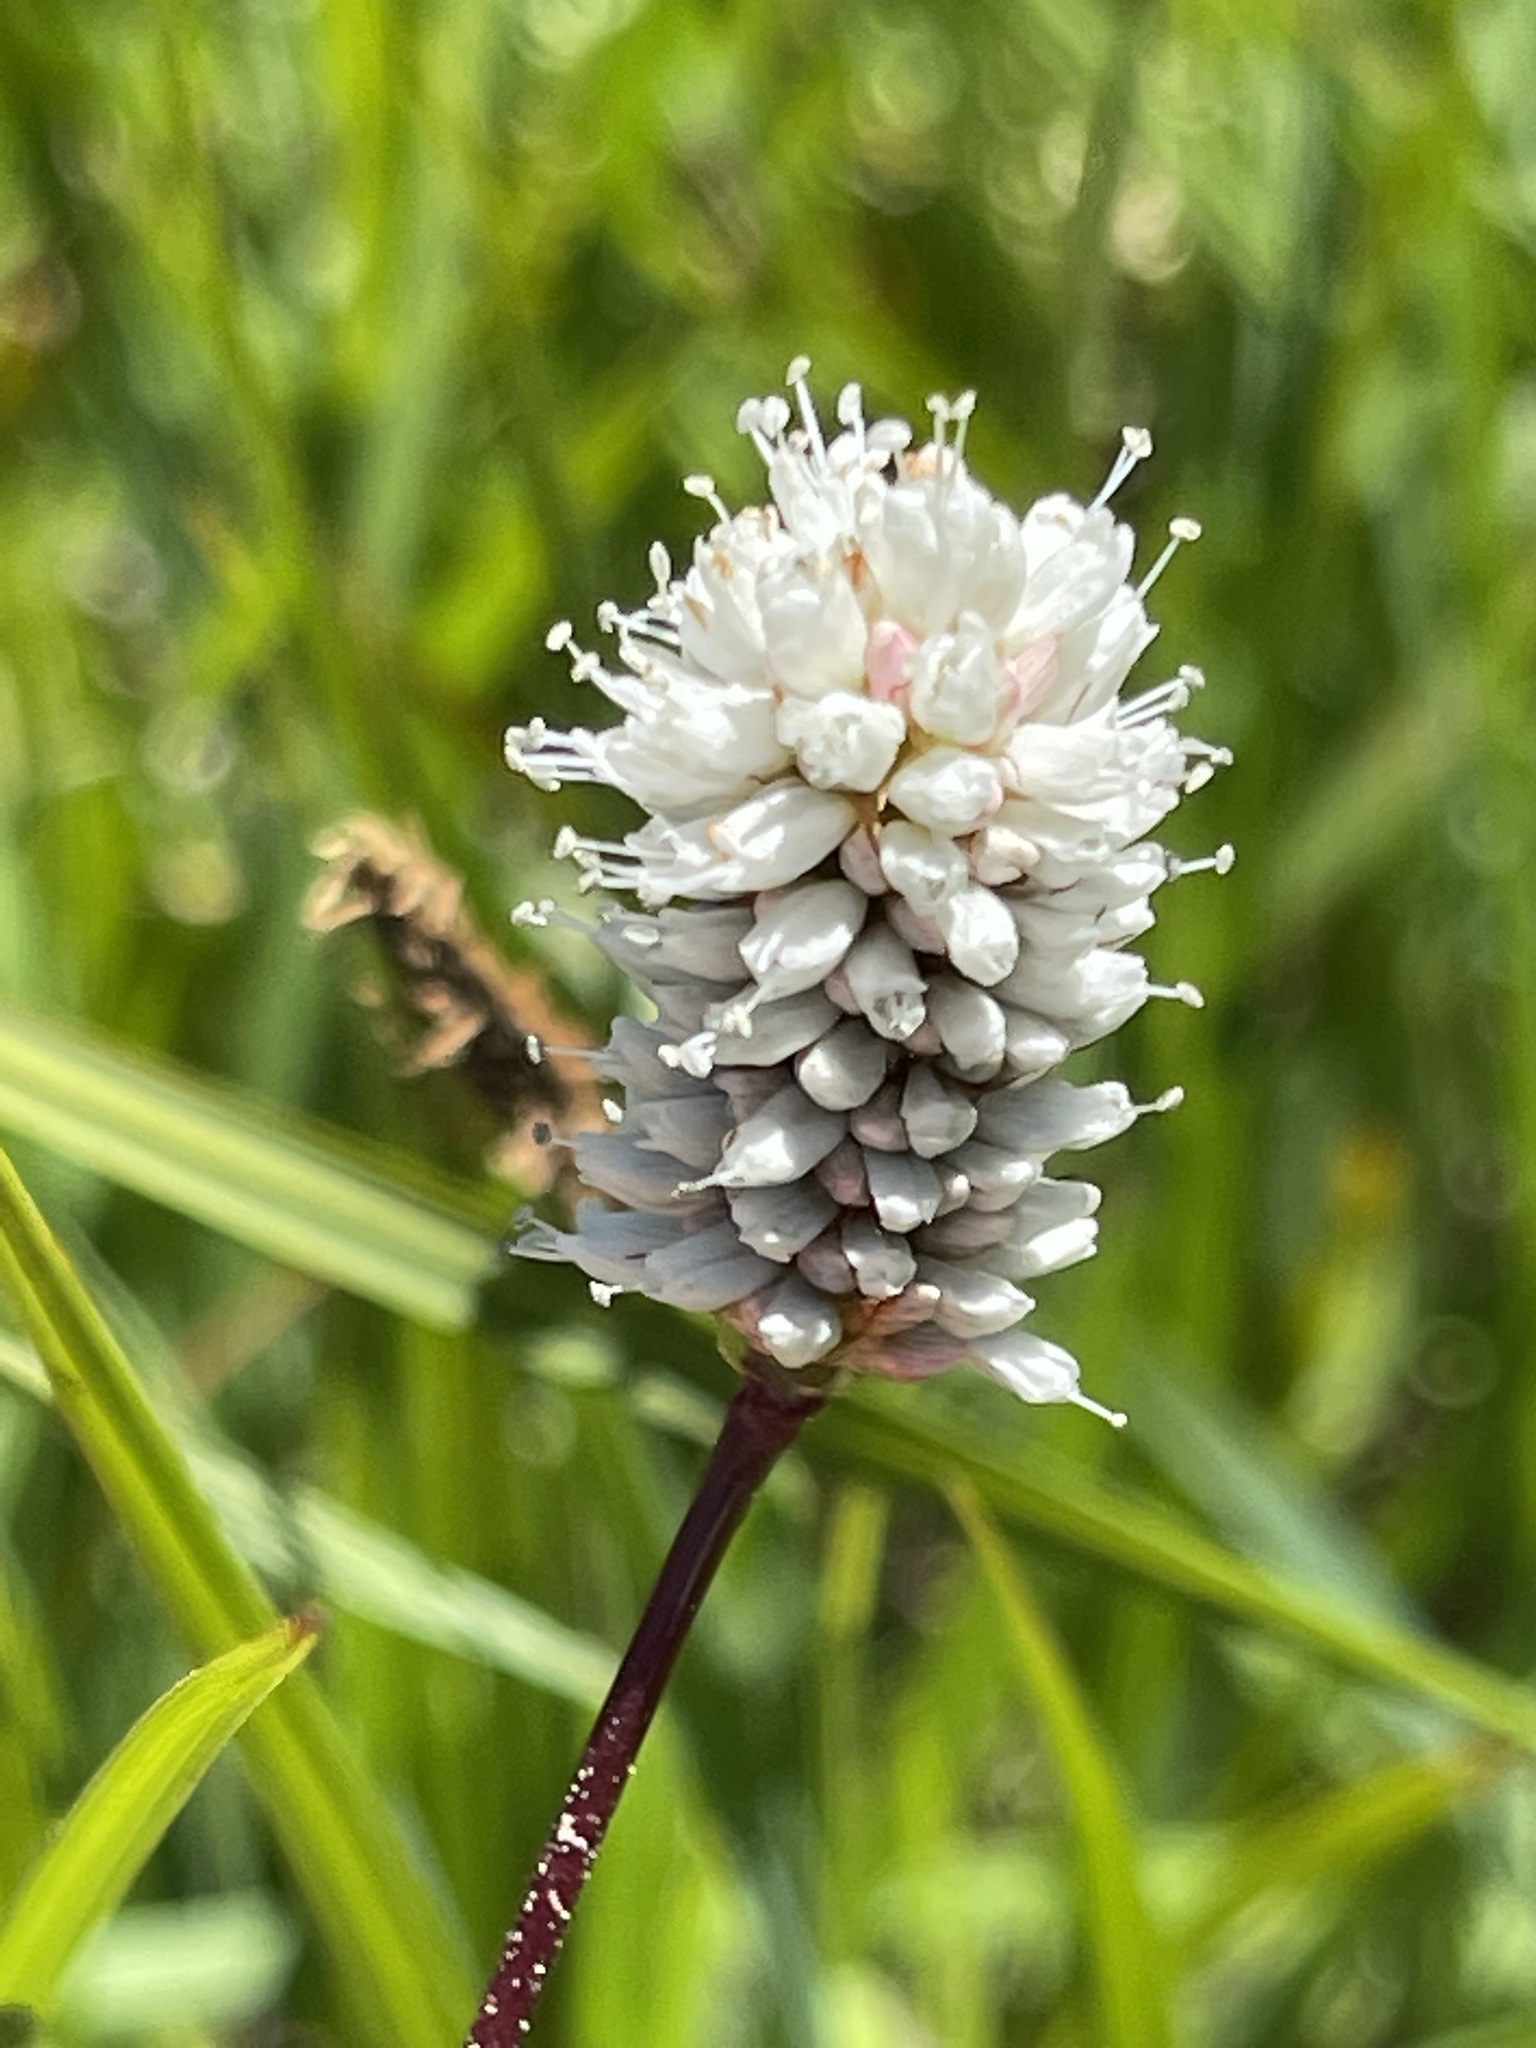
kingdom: Plantae
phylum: Tracheophyta
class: Magnoliopsida
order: Caryophyllales
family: Polygonaceae
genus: Bistorta
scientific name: Bistorta bistortoides
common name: American bistort
